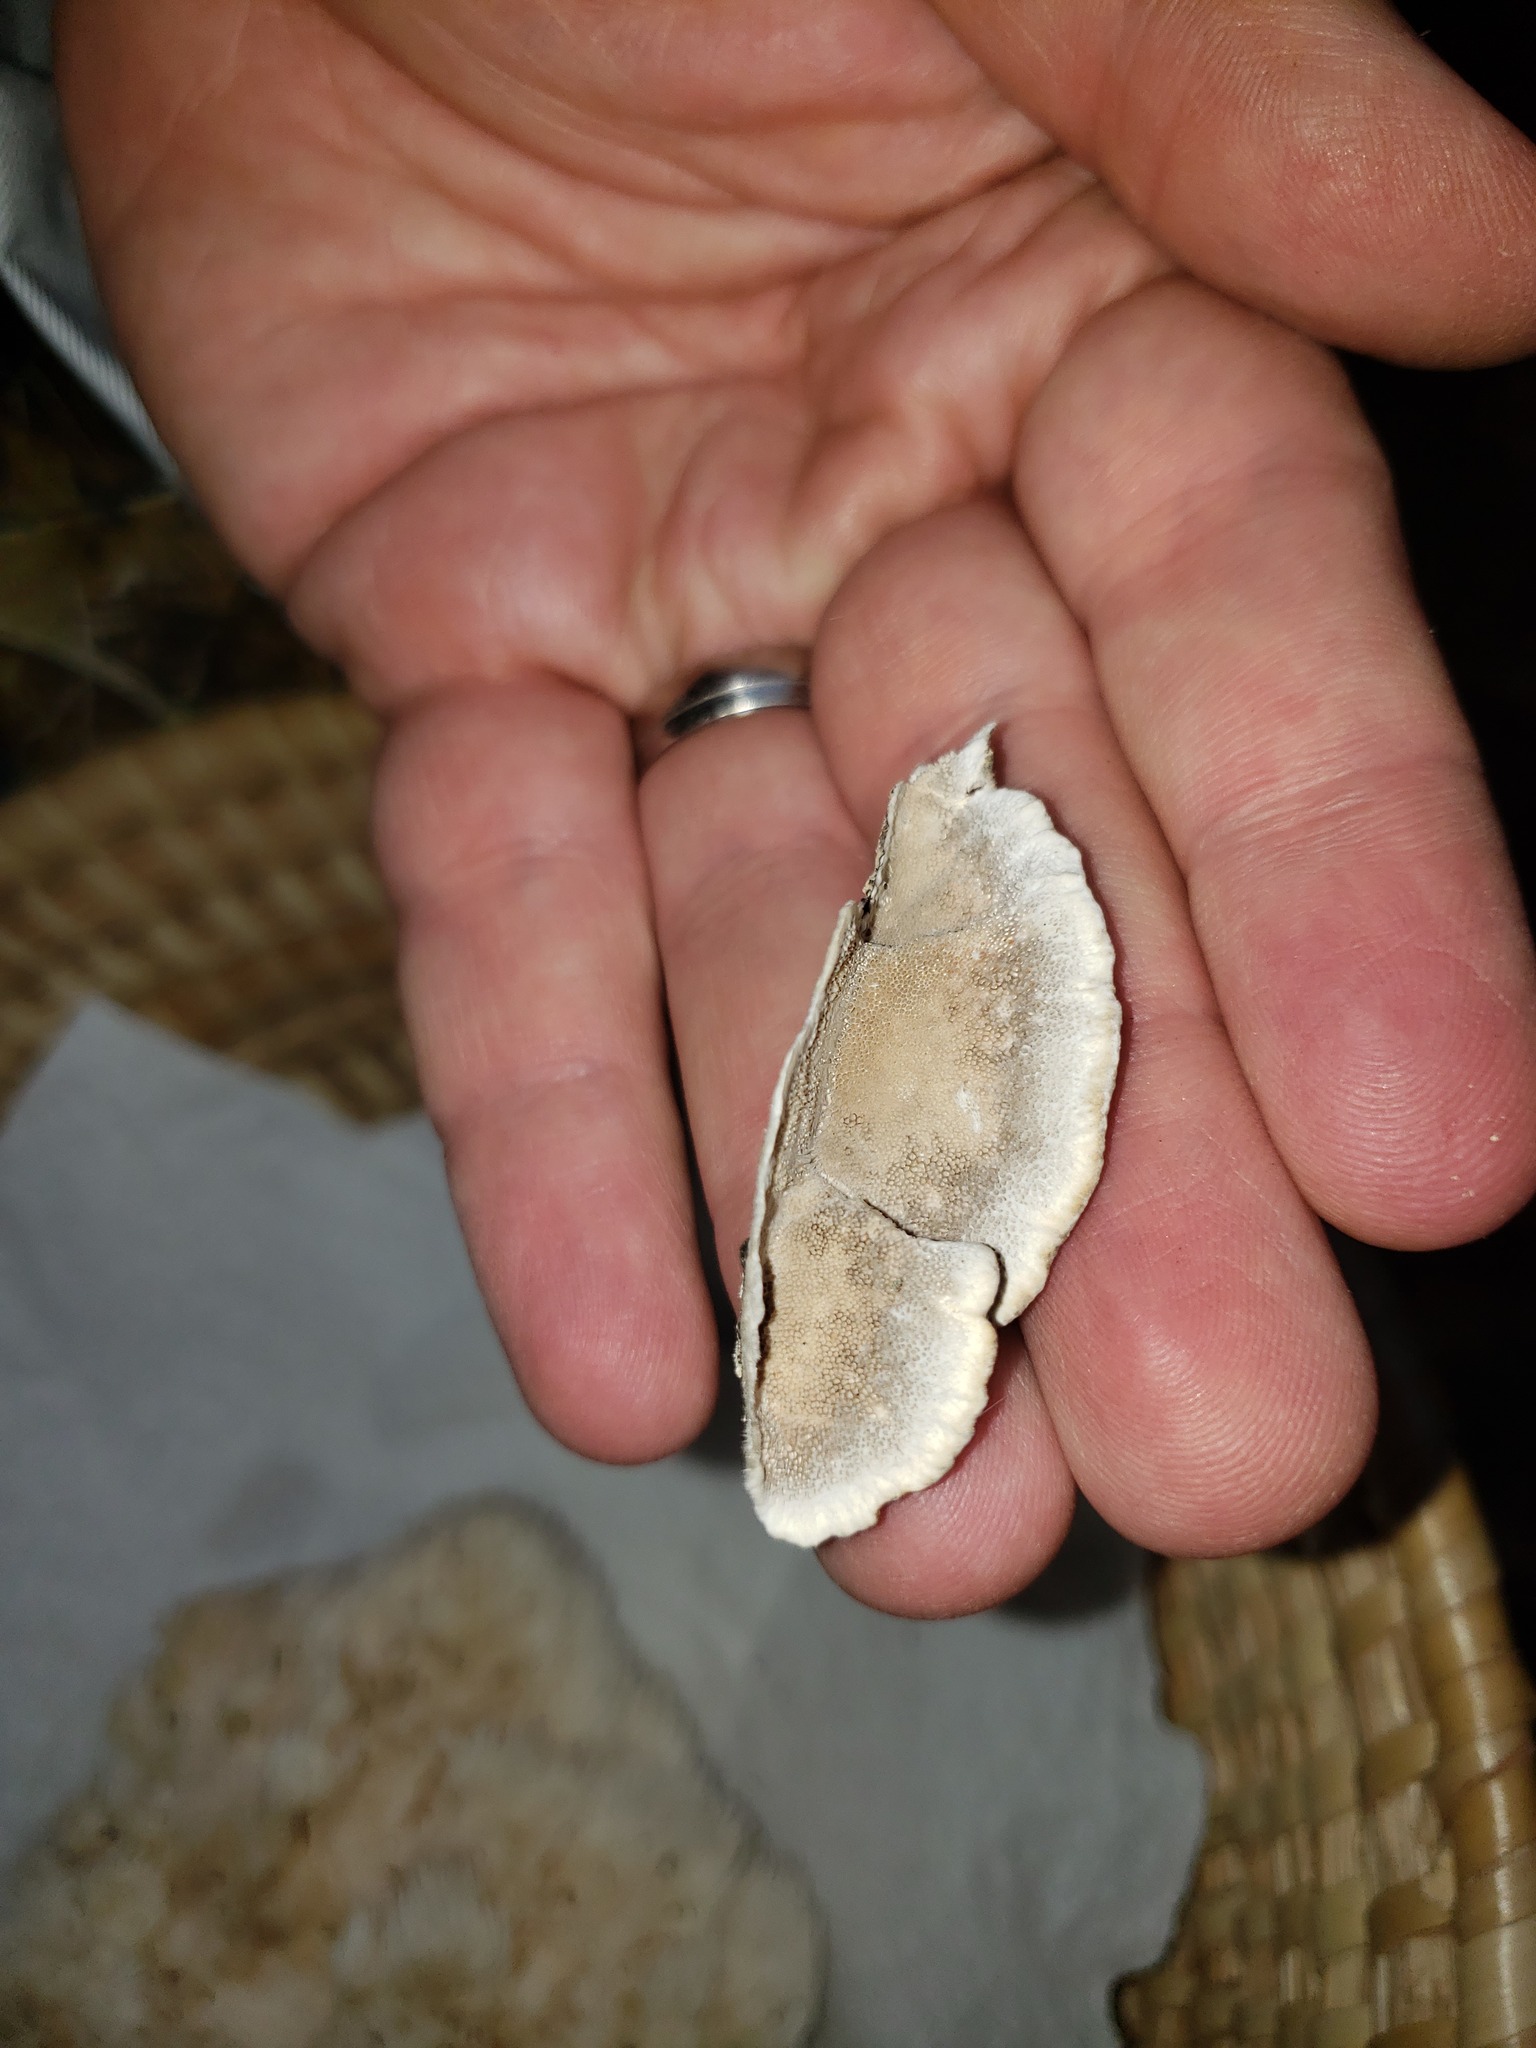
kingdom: Fungi
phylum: Basidiomycota
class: Agaricomycetes
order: Polyporales
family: Polyporaceae
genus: Trametes
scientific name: Trametes hirsuta
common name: Hairy bracket
